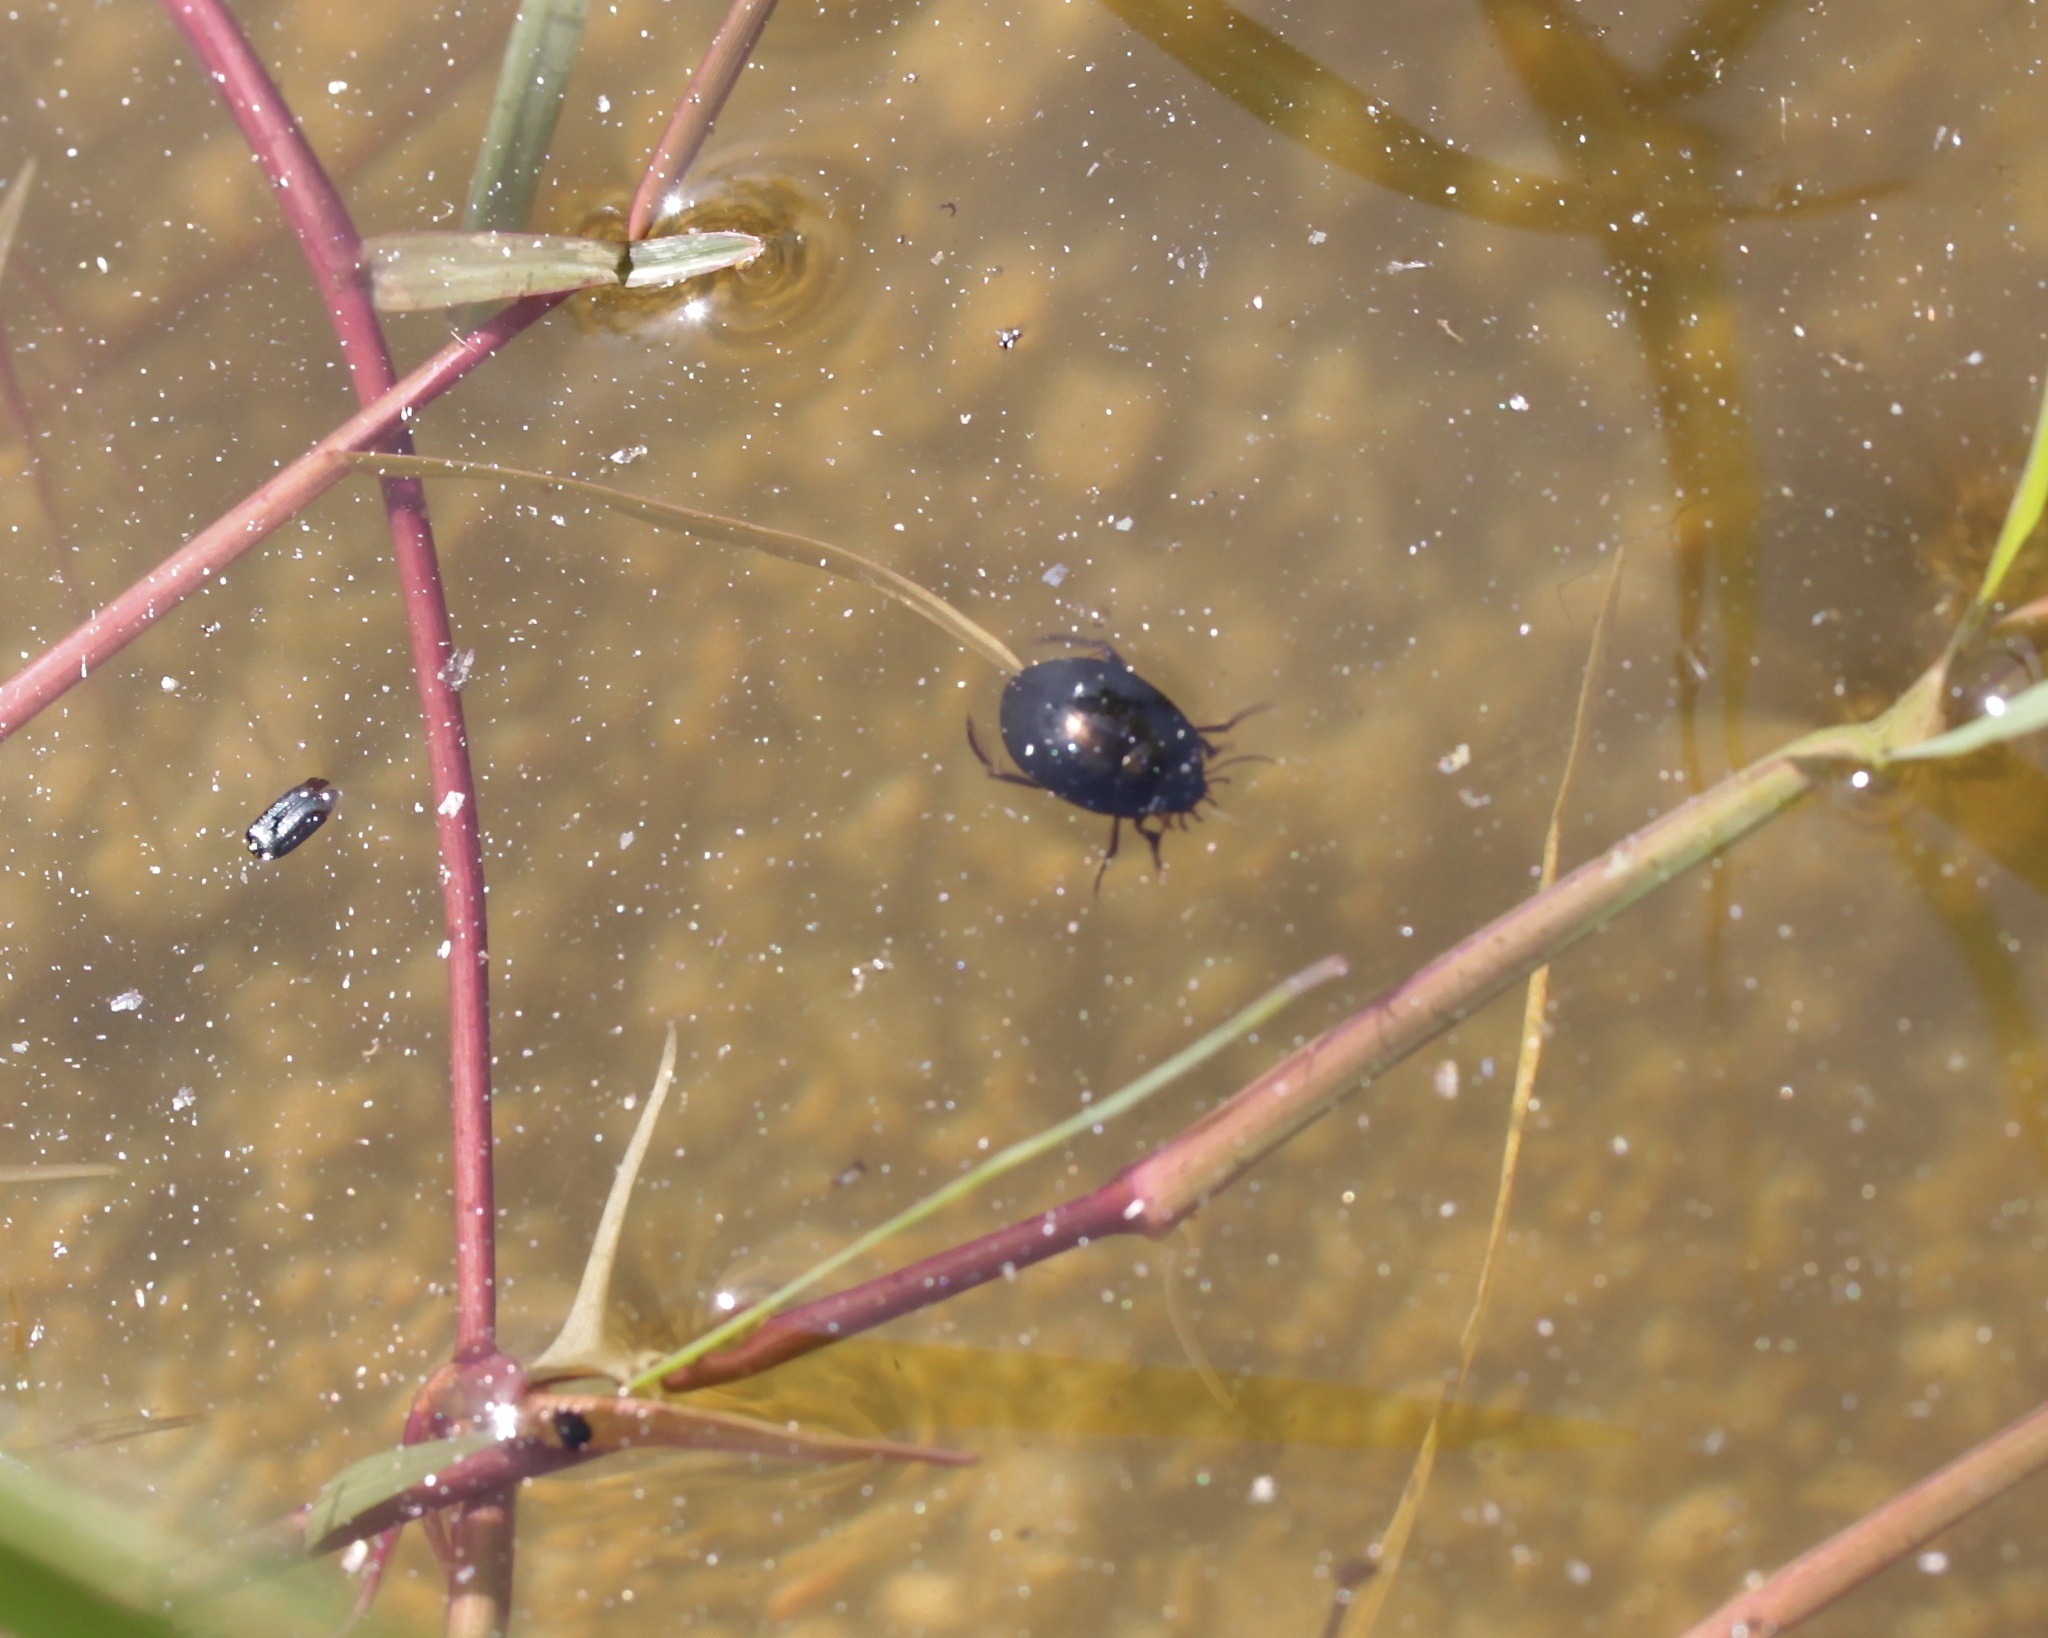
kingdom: Animalia
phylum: Arthropoda
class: Insecta
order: Coleoptera
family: Dytiscidae
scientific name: Dytiscidae
